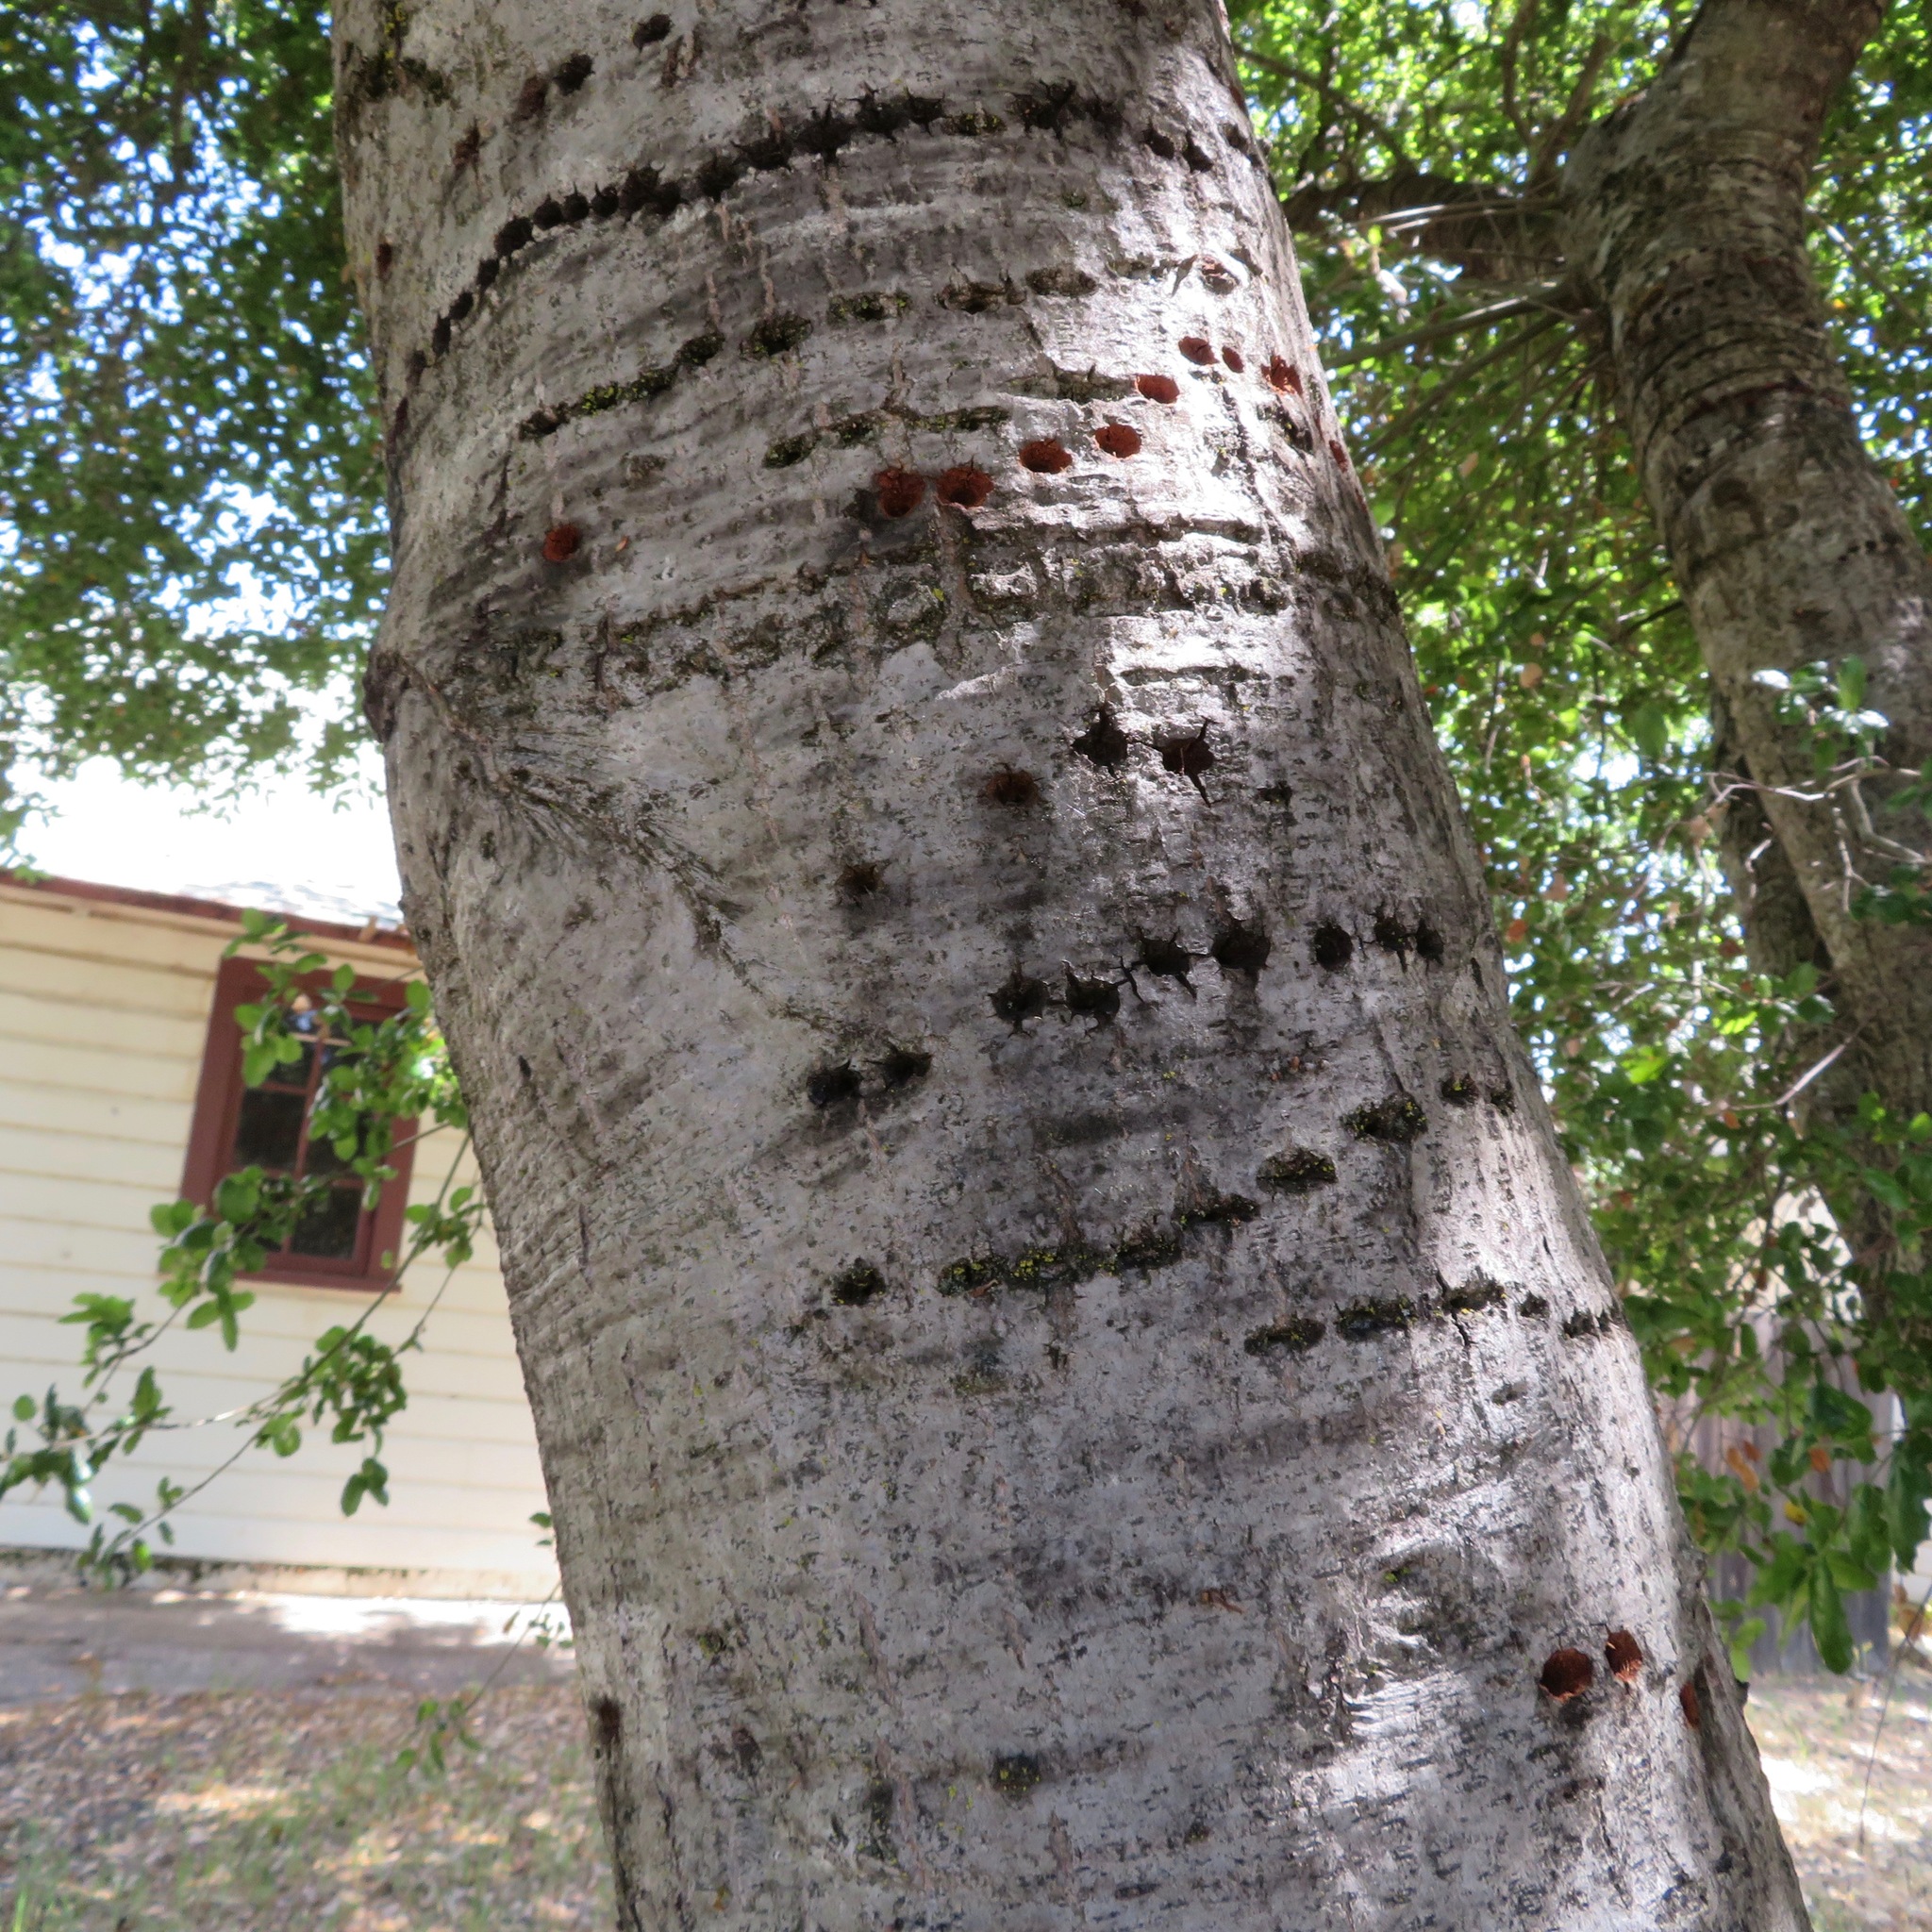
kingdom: Animalia
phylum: Chordata
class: Aves
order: Piciformes
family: Picidae
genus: Sphyrapicus
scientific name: Sphyrapicus
